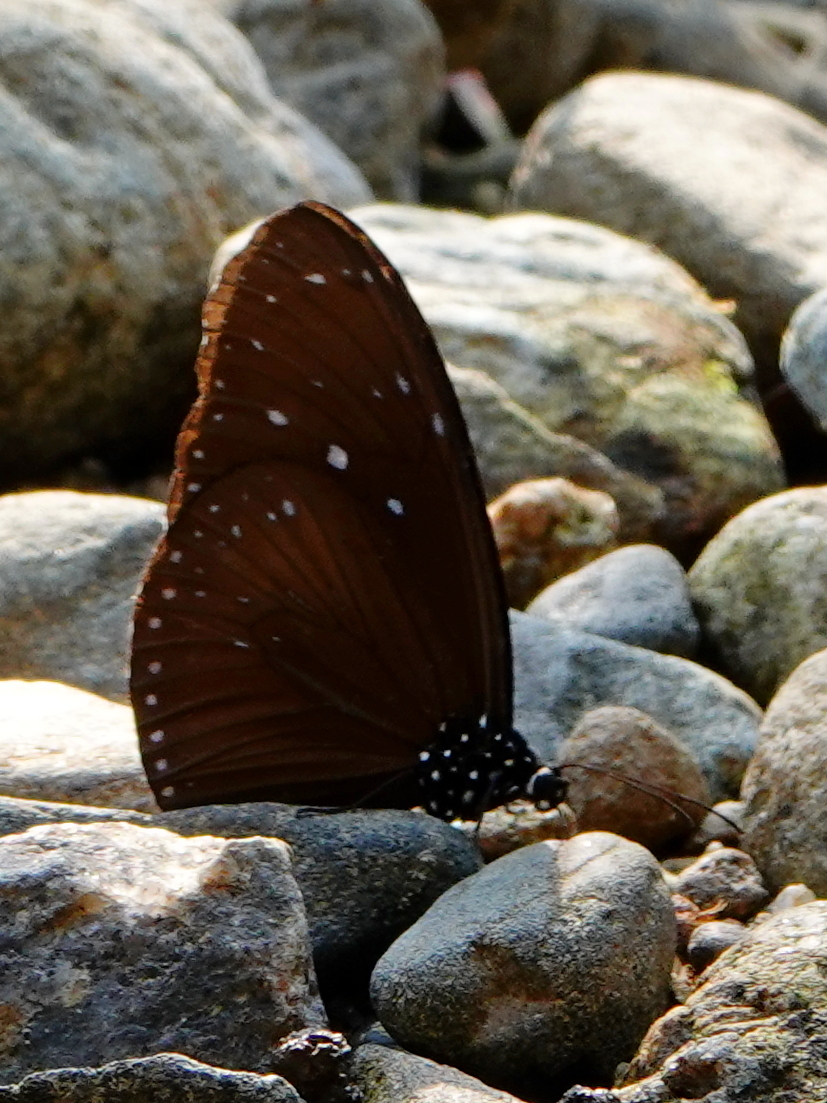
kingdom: Animalia
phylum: Arthropoda
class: Insecta
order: Lepidoptera
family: Nymphalidae
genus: Euploea
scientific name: Euploea mulciber
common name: Striped blue crow butterfly
